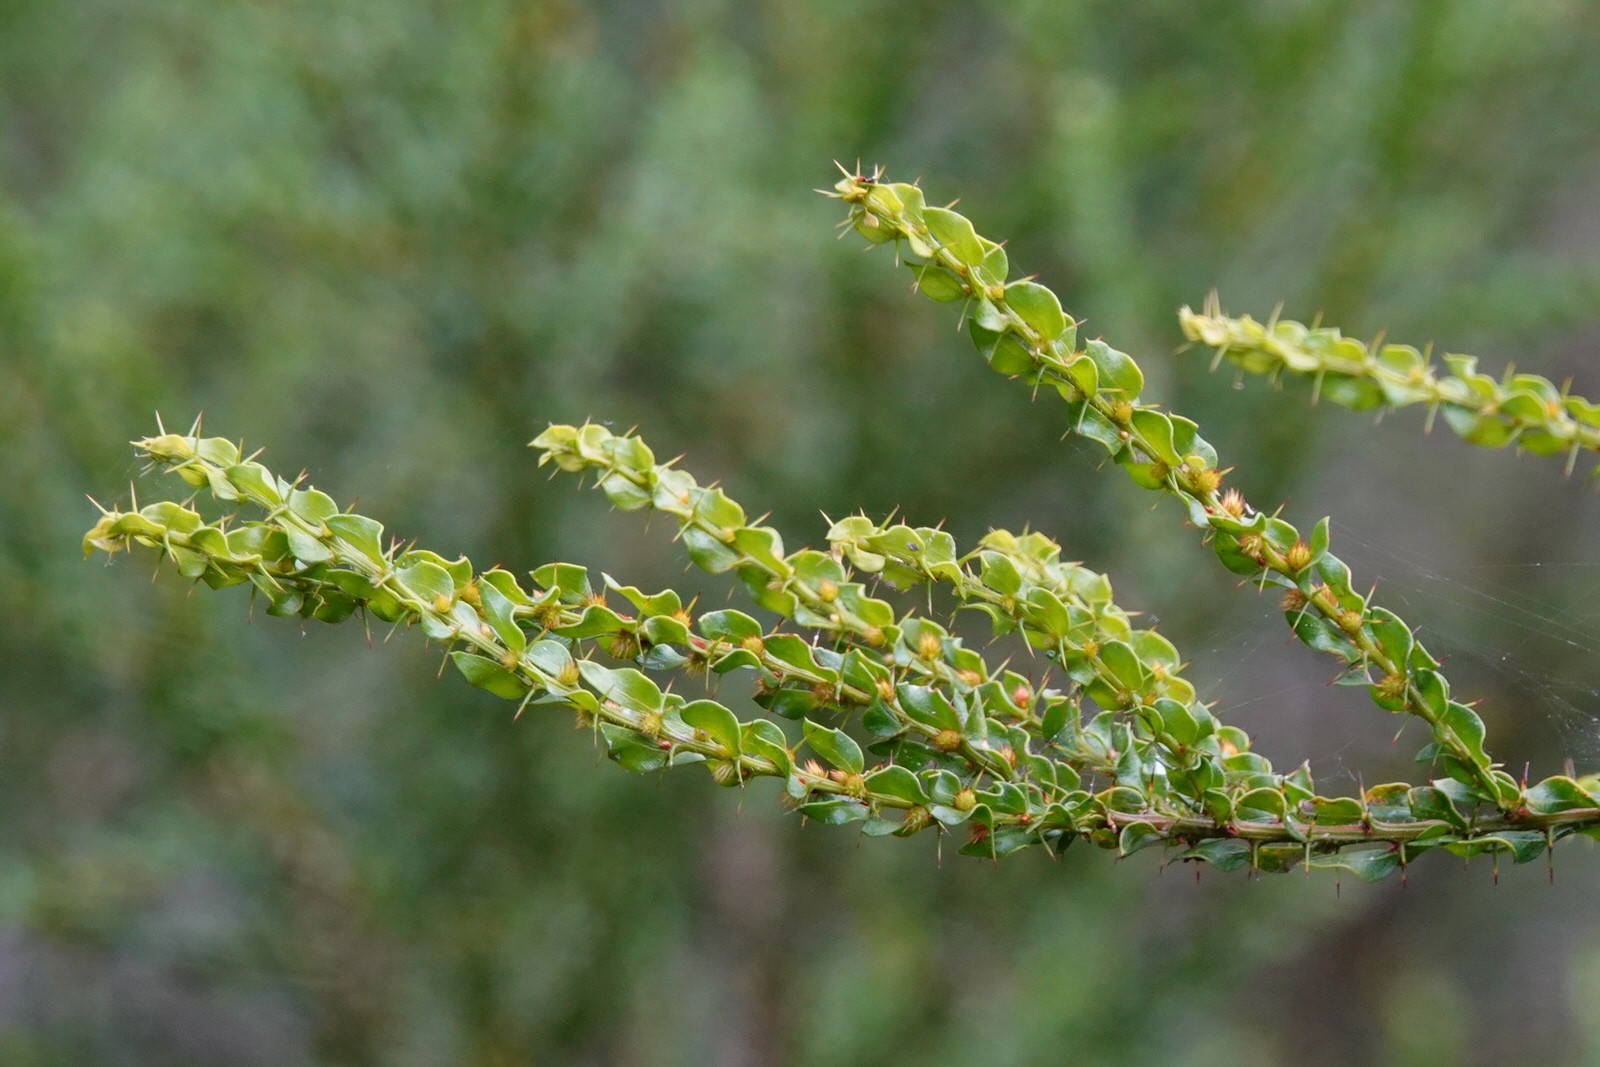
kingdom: Plantae
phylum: Tracheophyta
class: Magnoliopsida
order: Fabales
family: Fabaceae
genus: Acacia
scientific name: Acacia paradoxa
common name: Paradox acacia
